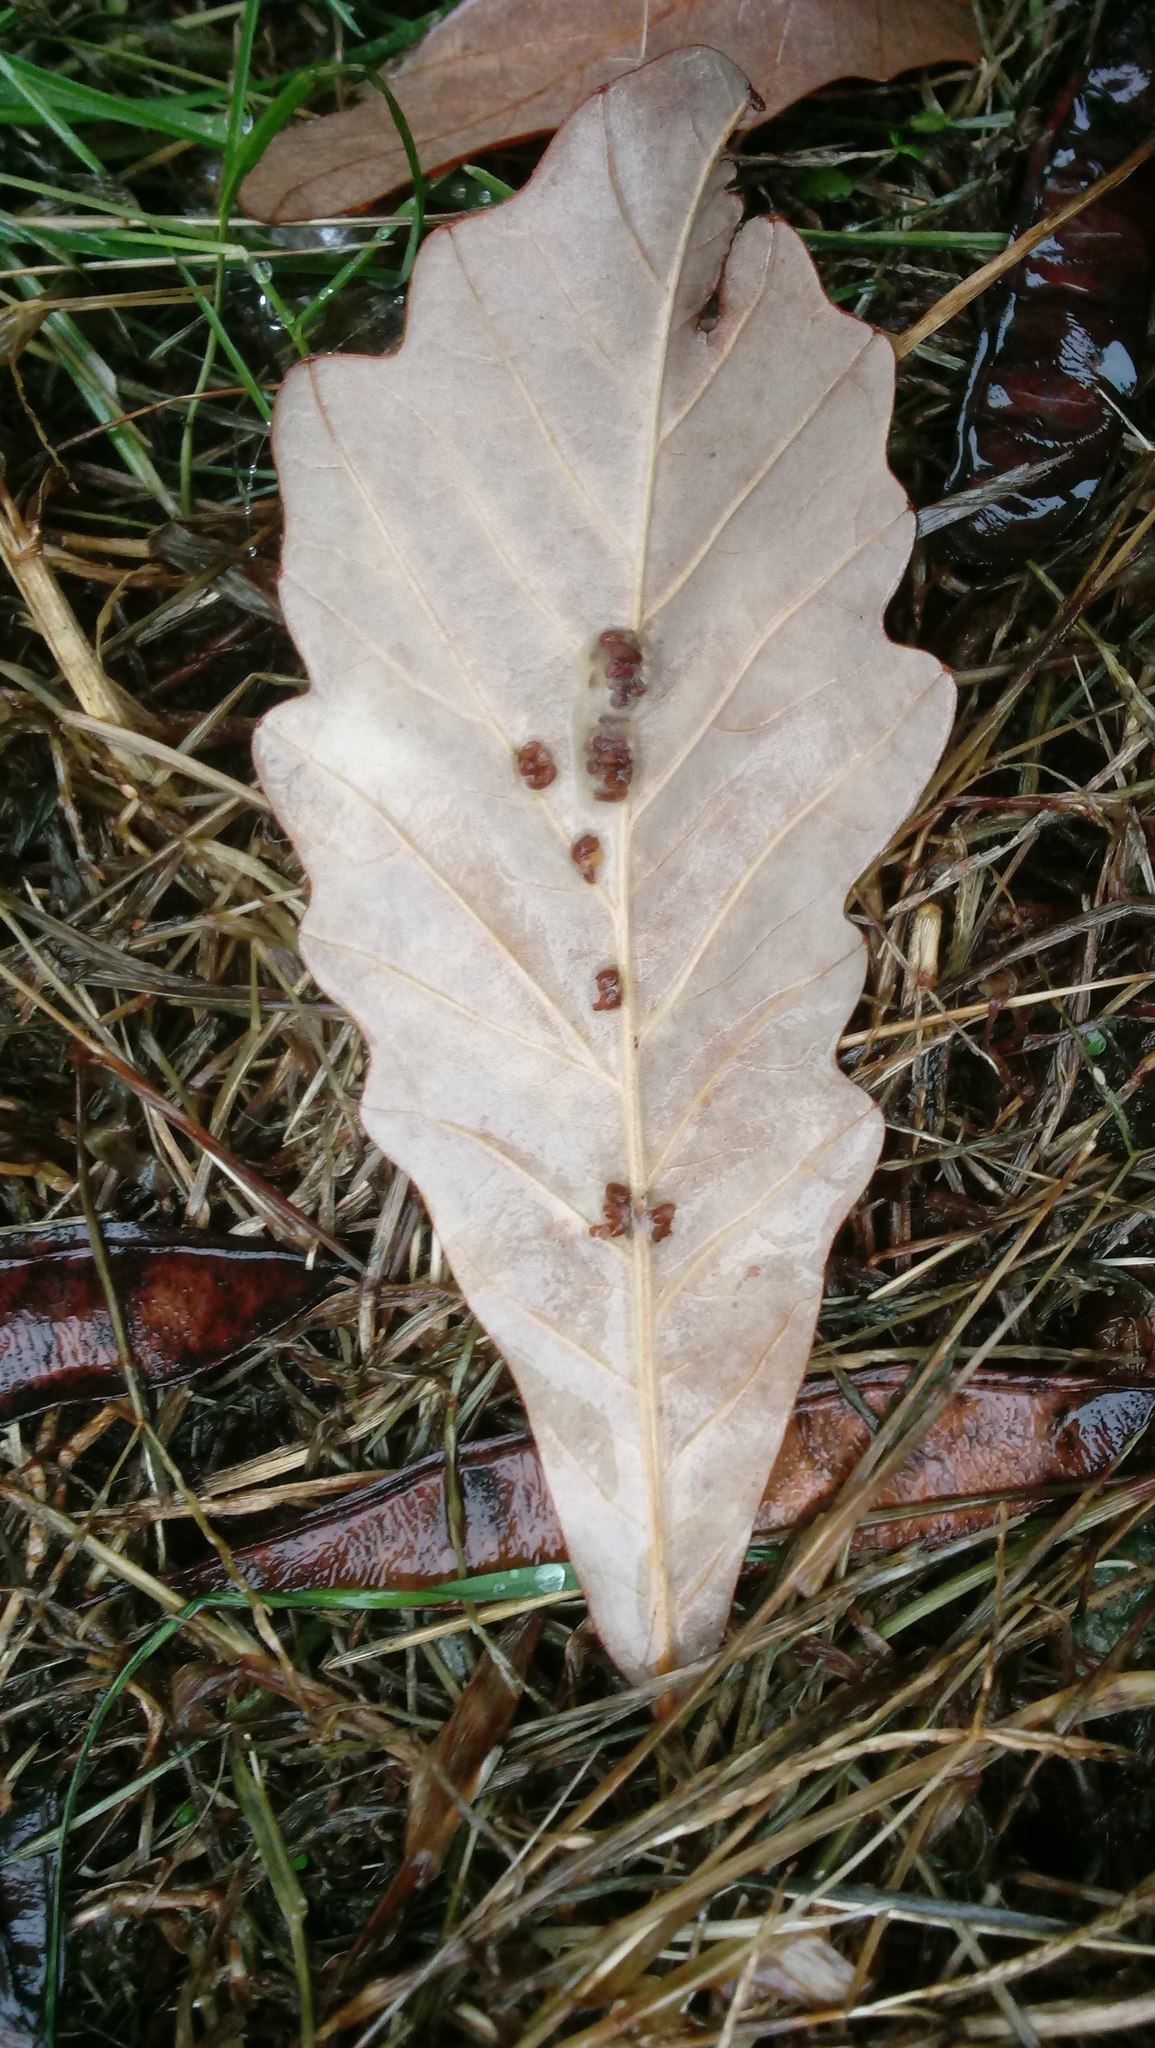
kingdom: Animalia
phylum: Arthropoda
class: Insecta
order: Hymenoptera
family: Cynipidae
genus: Andricus
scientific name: Andricus Druon ignotum
